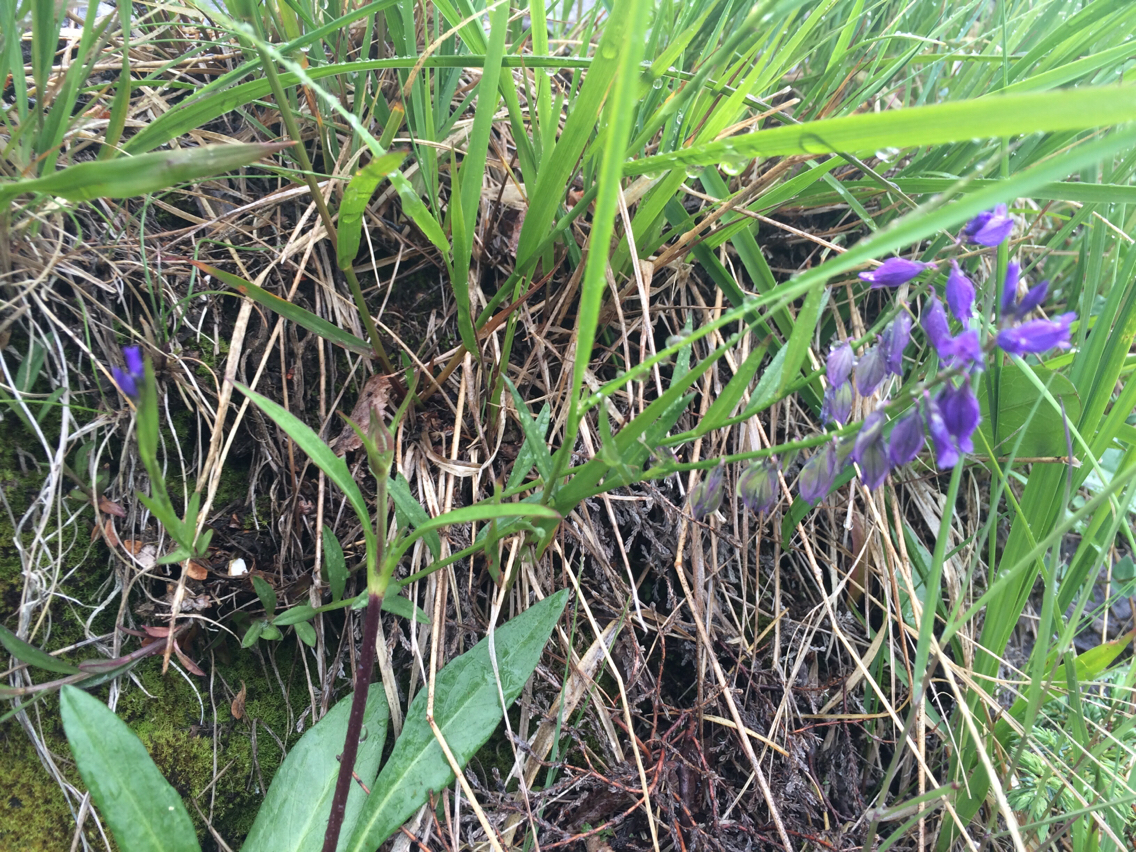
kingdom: Plantae
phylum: Tracheophyta
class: Magnoliopsida
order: Fabales
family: Polygalaceae
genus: Polygala
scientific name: Polygala vulgaris
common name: Common milkwort
